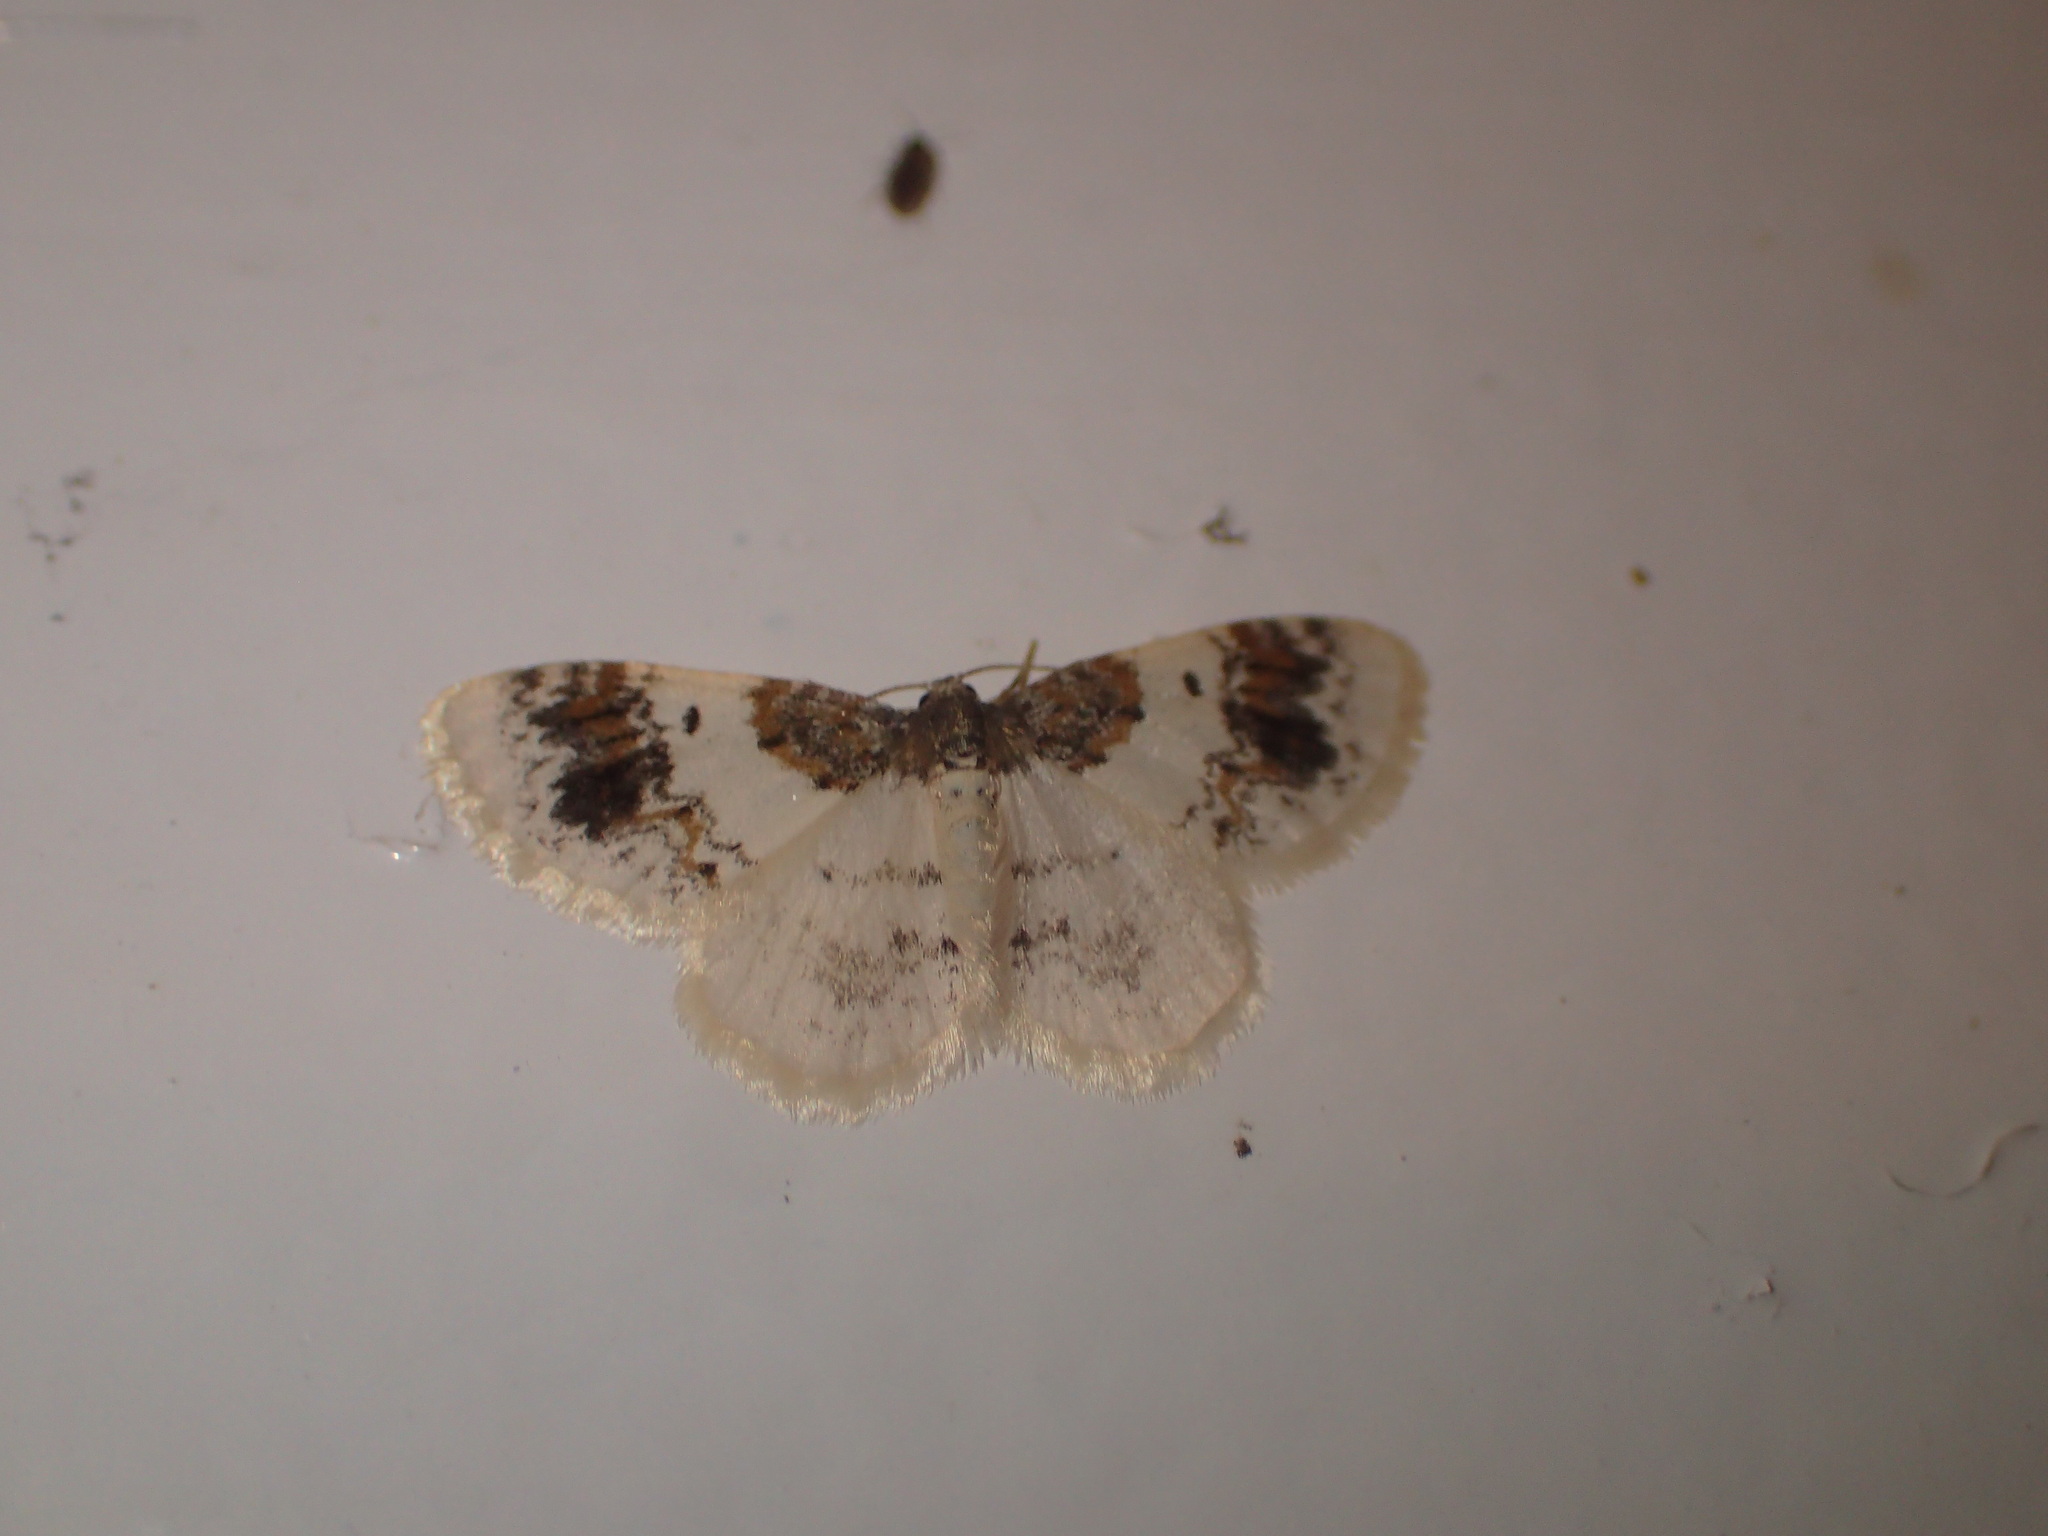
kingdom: Animalia
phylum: Arthropoda
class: Insecta
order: Lepidoptera
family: Geometridae
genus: Hydrelia
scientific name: Hydrelia condensata
